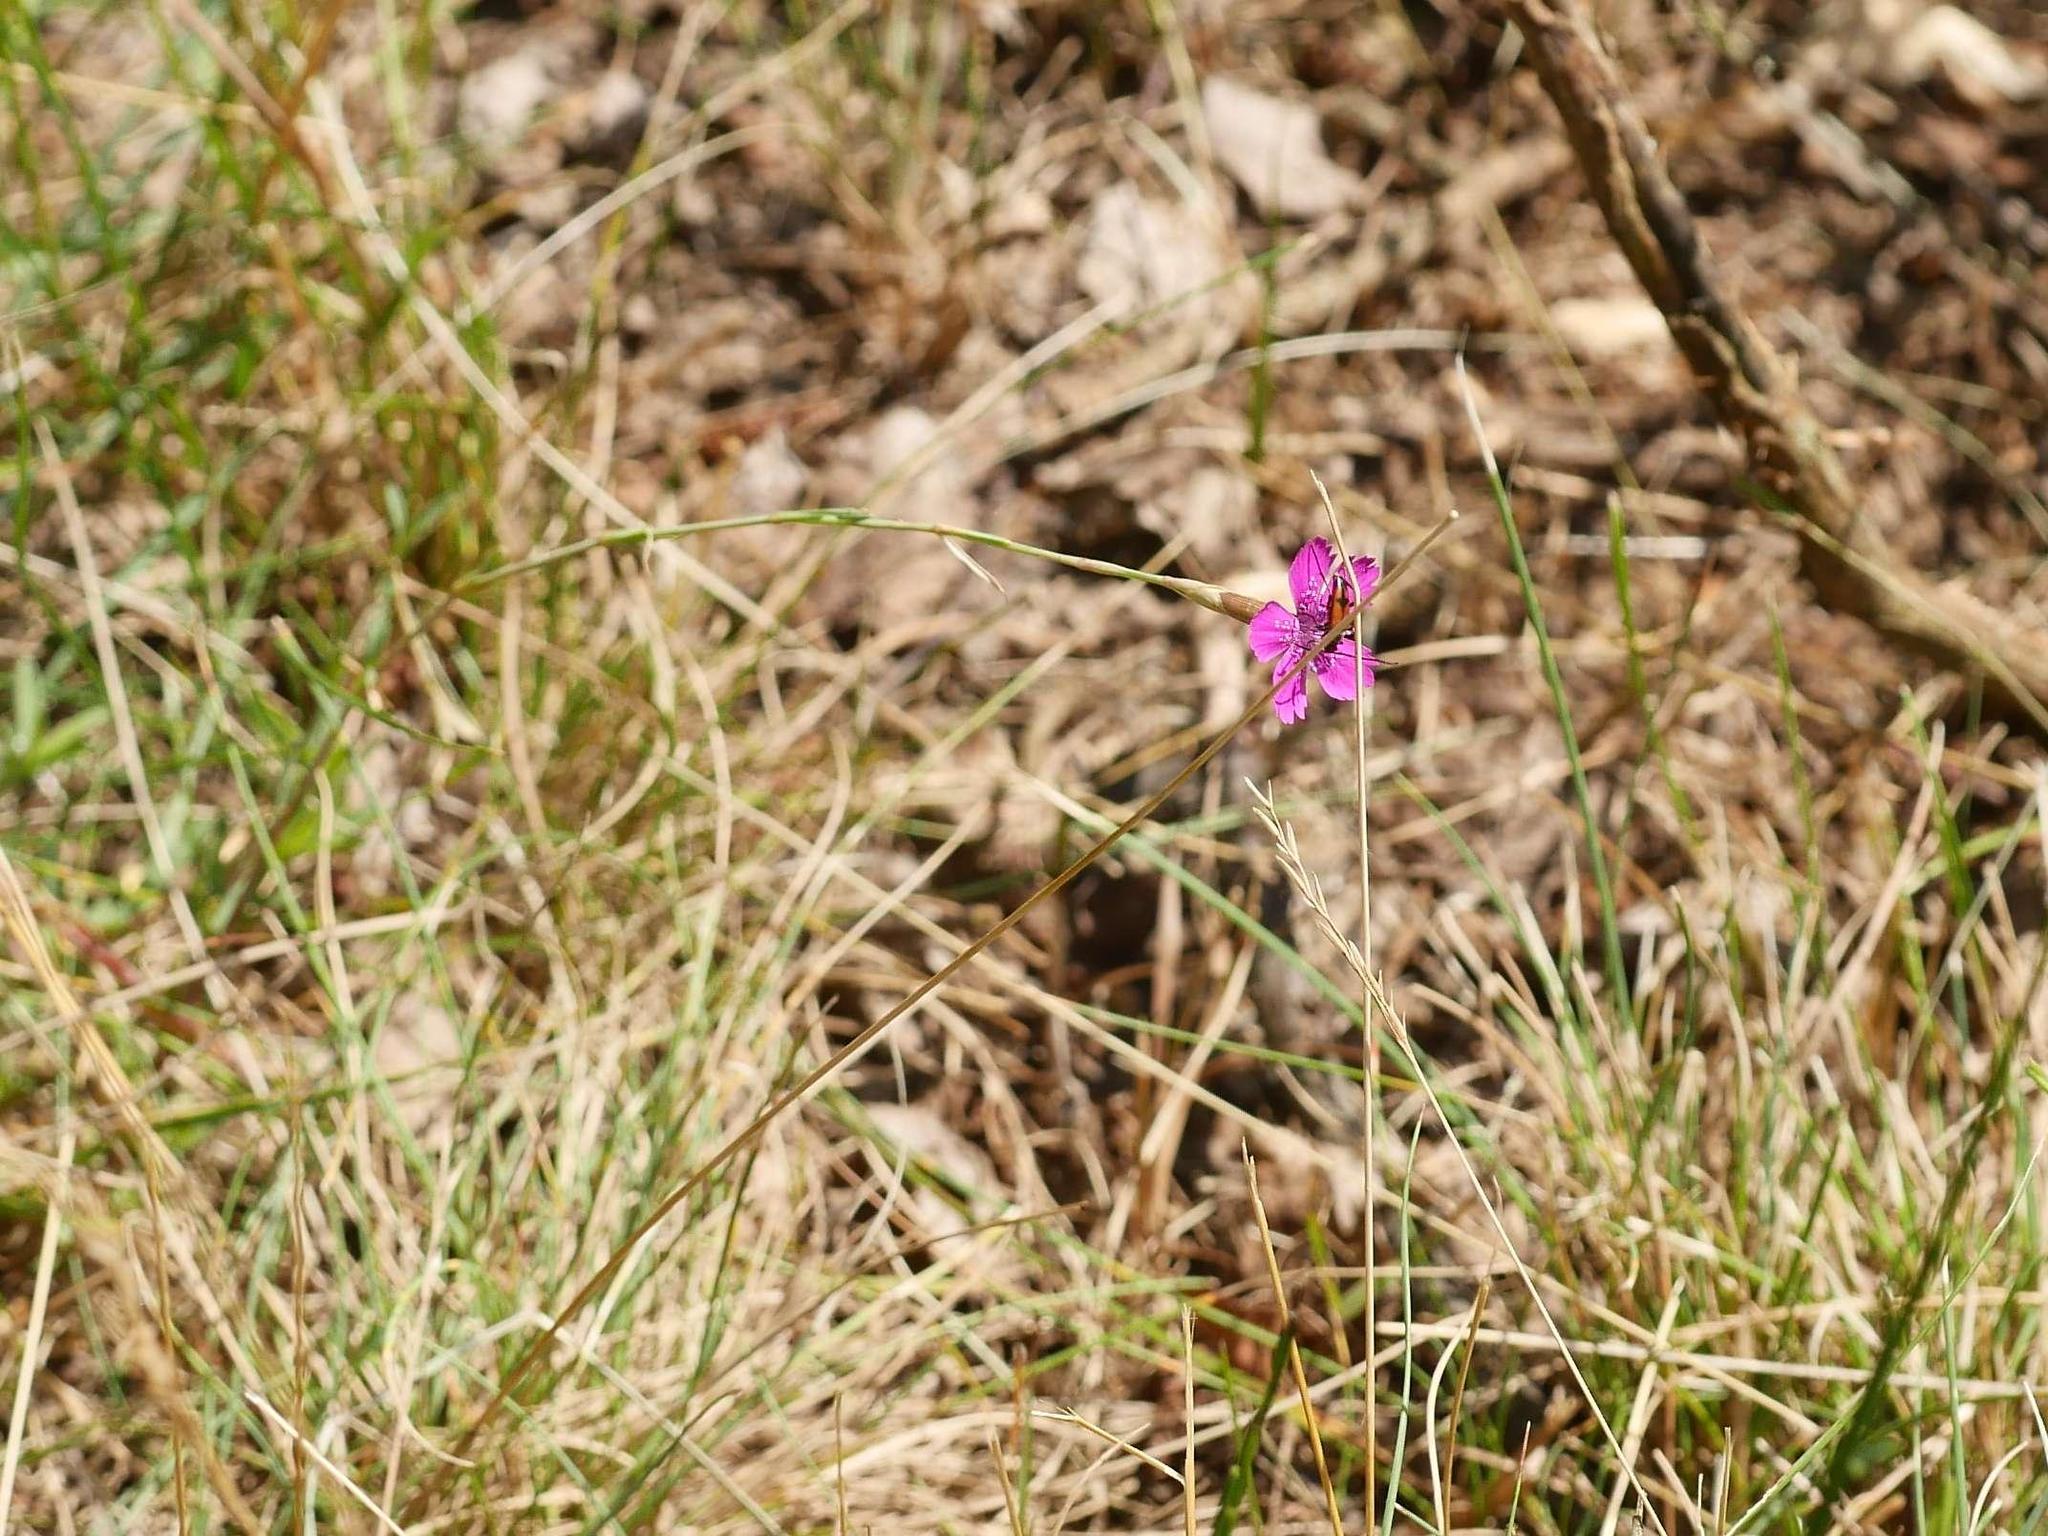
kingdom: Plantae
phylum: Tracheophyta
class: Magnoliopsida
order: Caryophyllales
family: Caryophyllaceae
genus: Dianthus
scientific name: Dianthus deltoides
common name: Maiden pink
